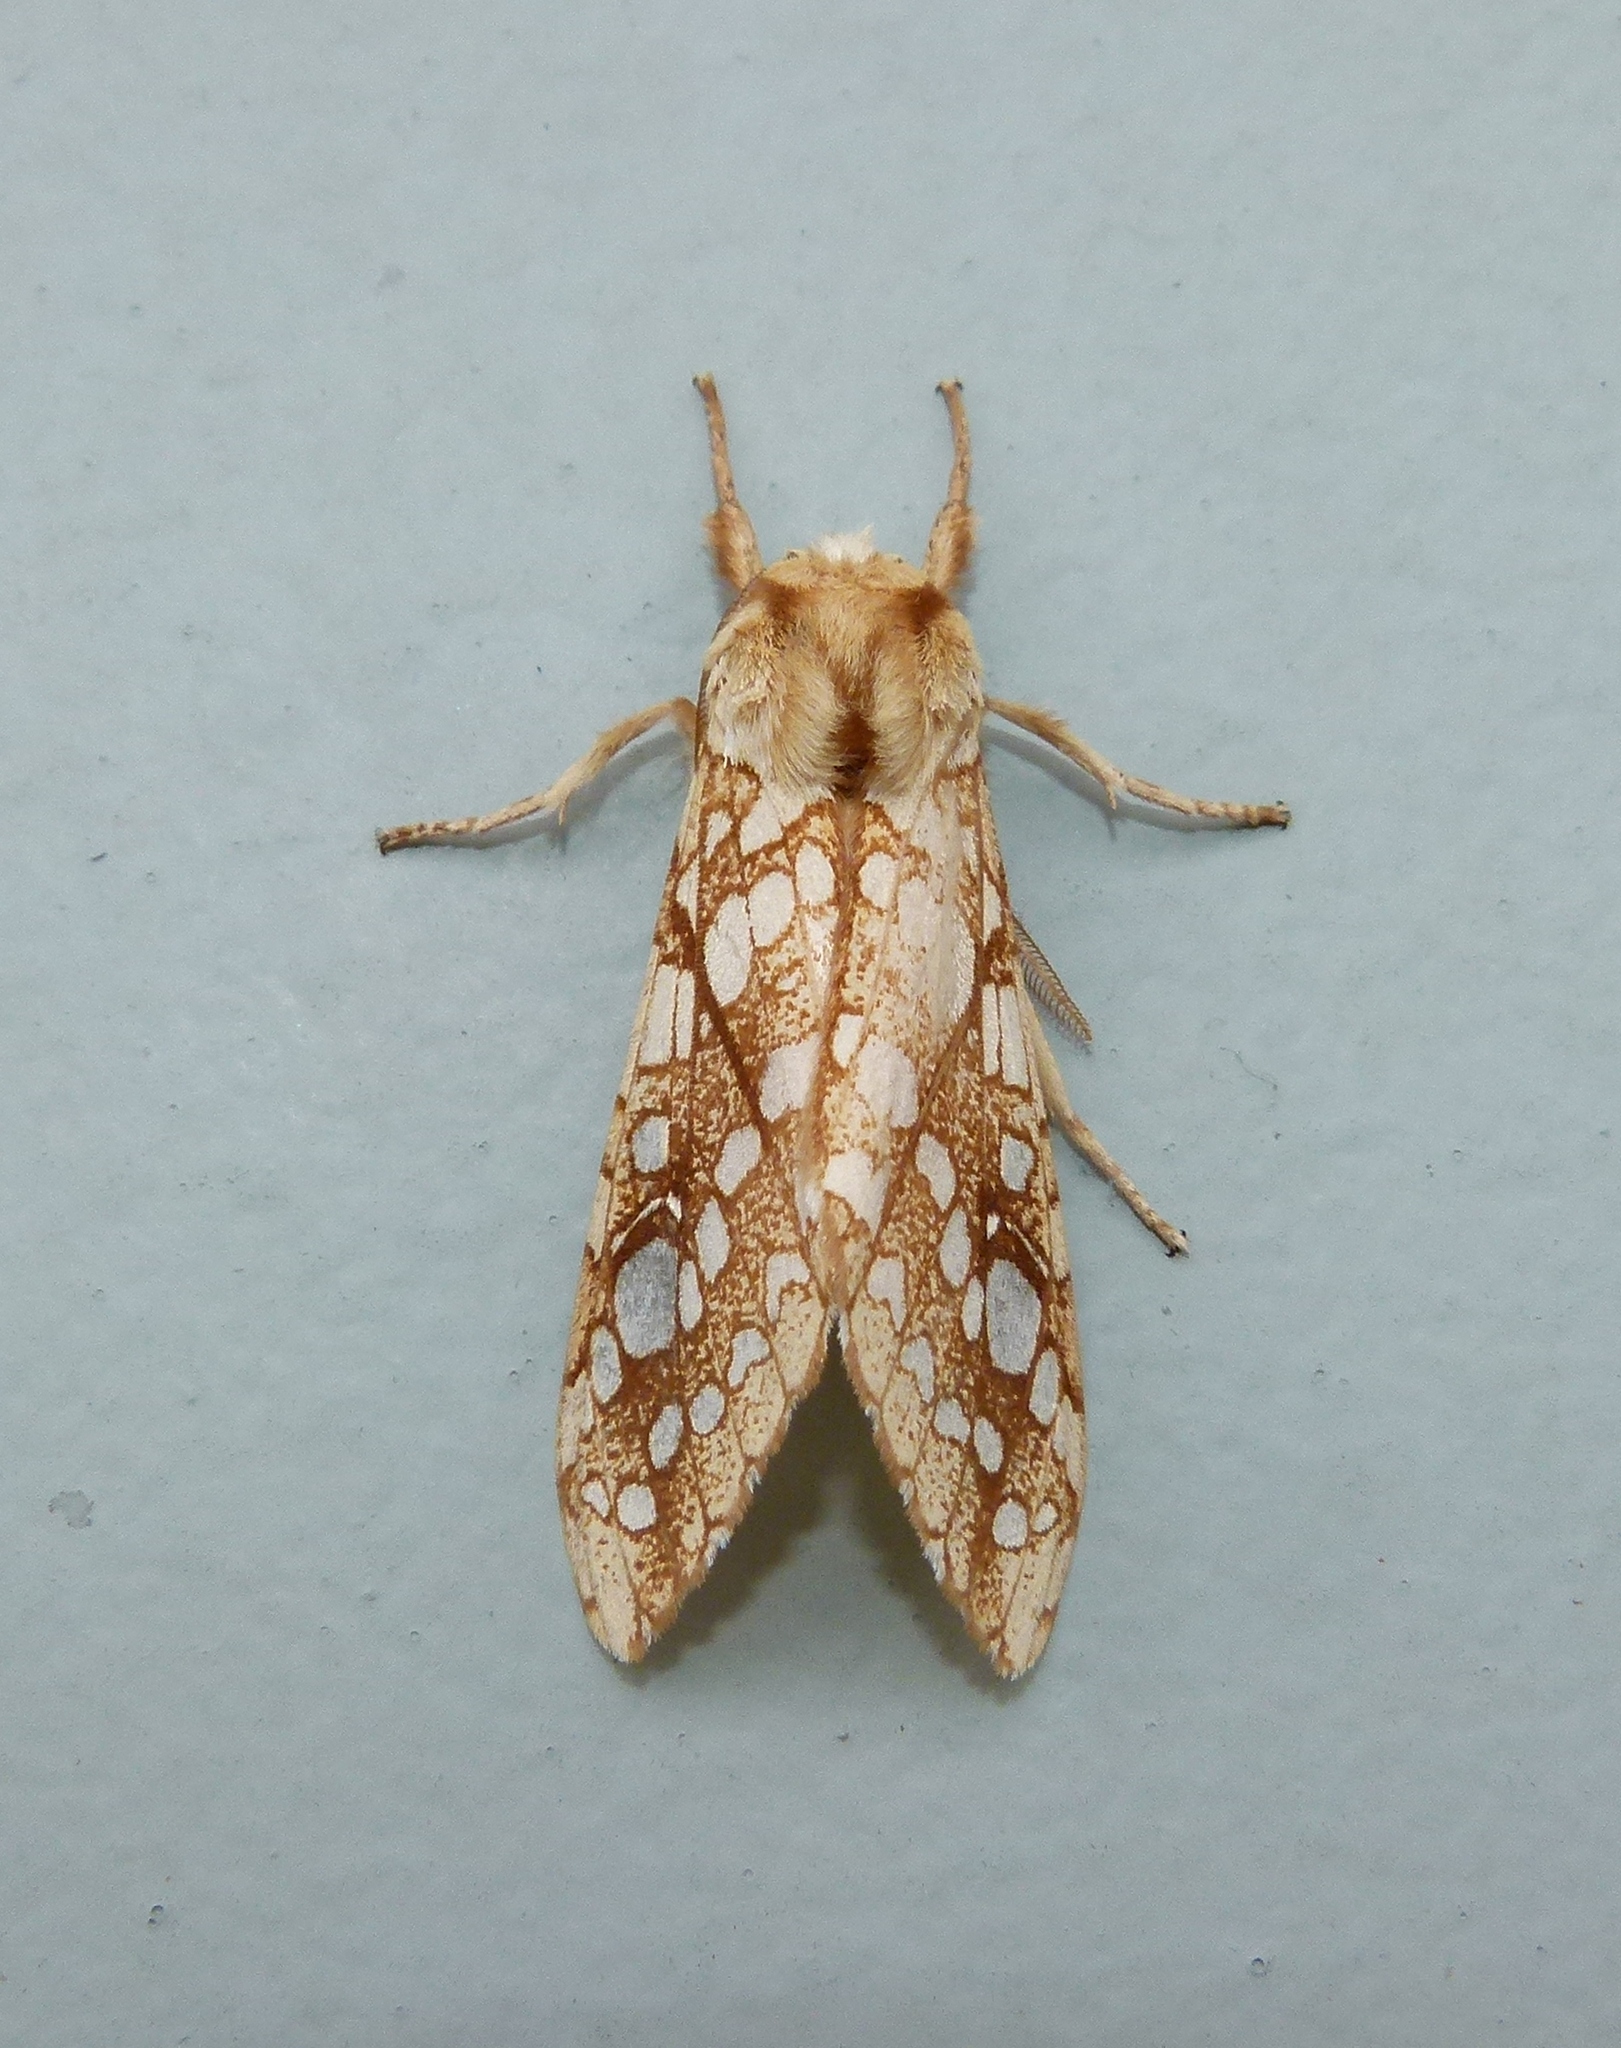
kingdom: Animalia
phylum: Arthropoda
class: Insecta
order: Lepidoptera
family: Erebidae
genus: Lophocampa
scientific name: Lophocampa caryae
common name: Hickory tussock moth
